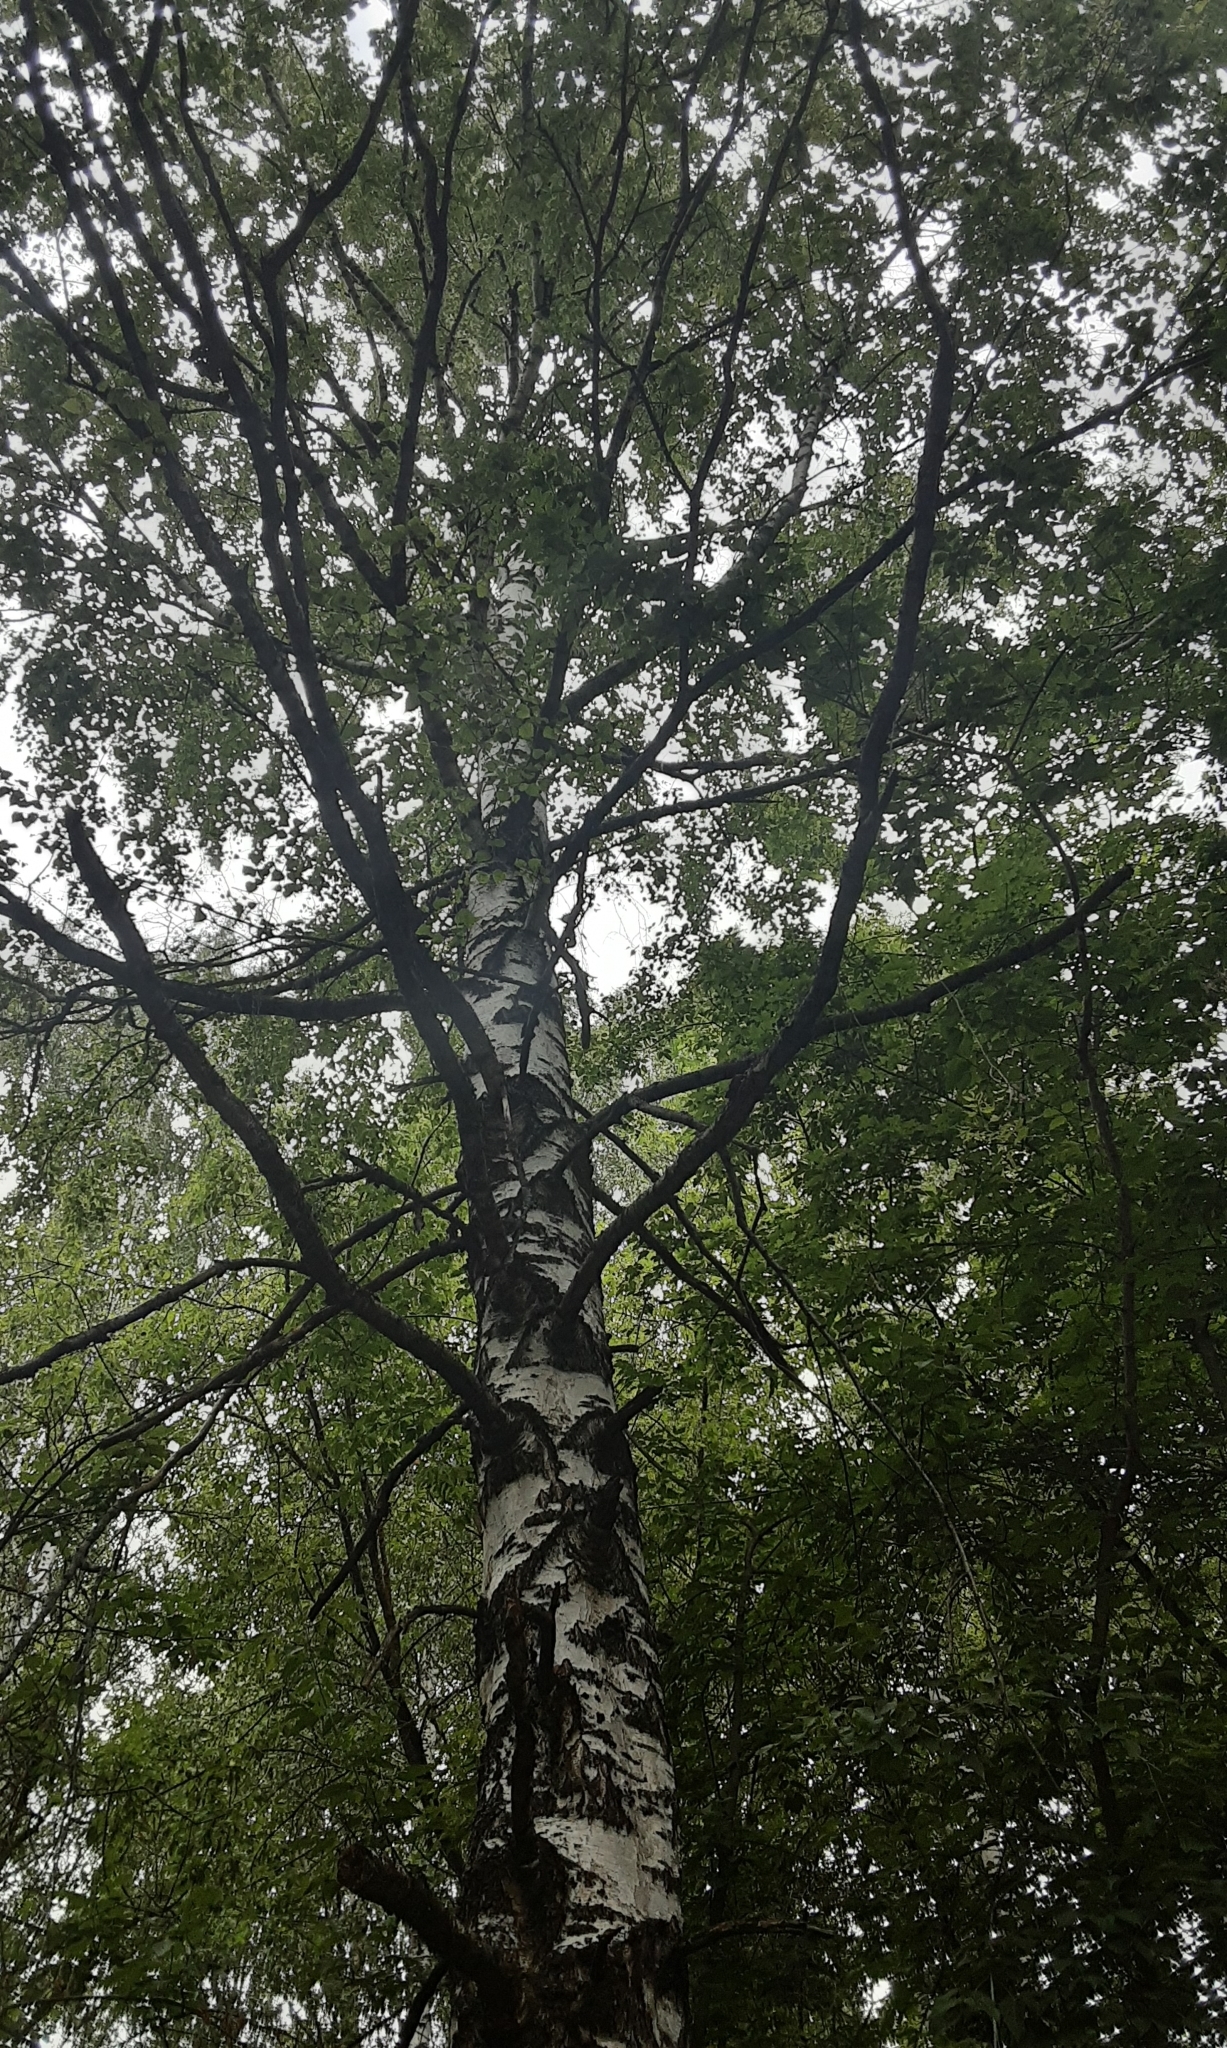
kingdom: Plantae
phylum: Tracheophyta
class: Magnoliopsida
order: Fagales
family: Betulaceae
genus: Betula
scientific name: Betula pendula
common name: Silver birch
